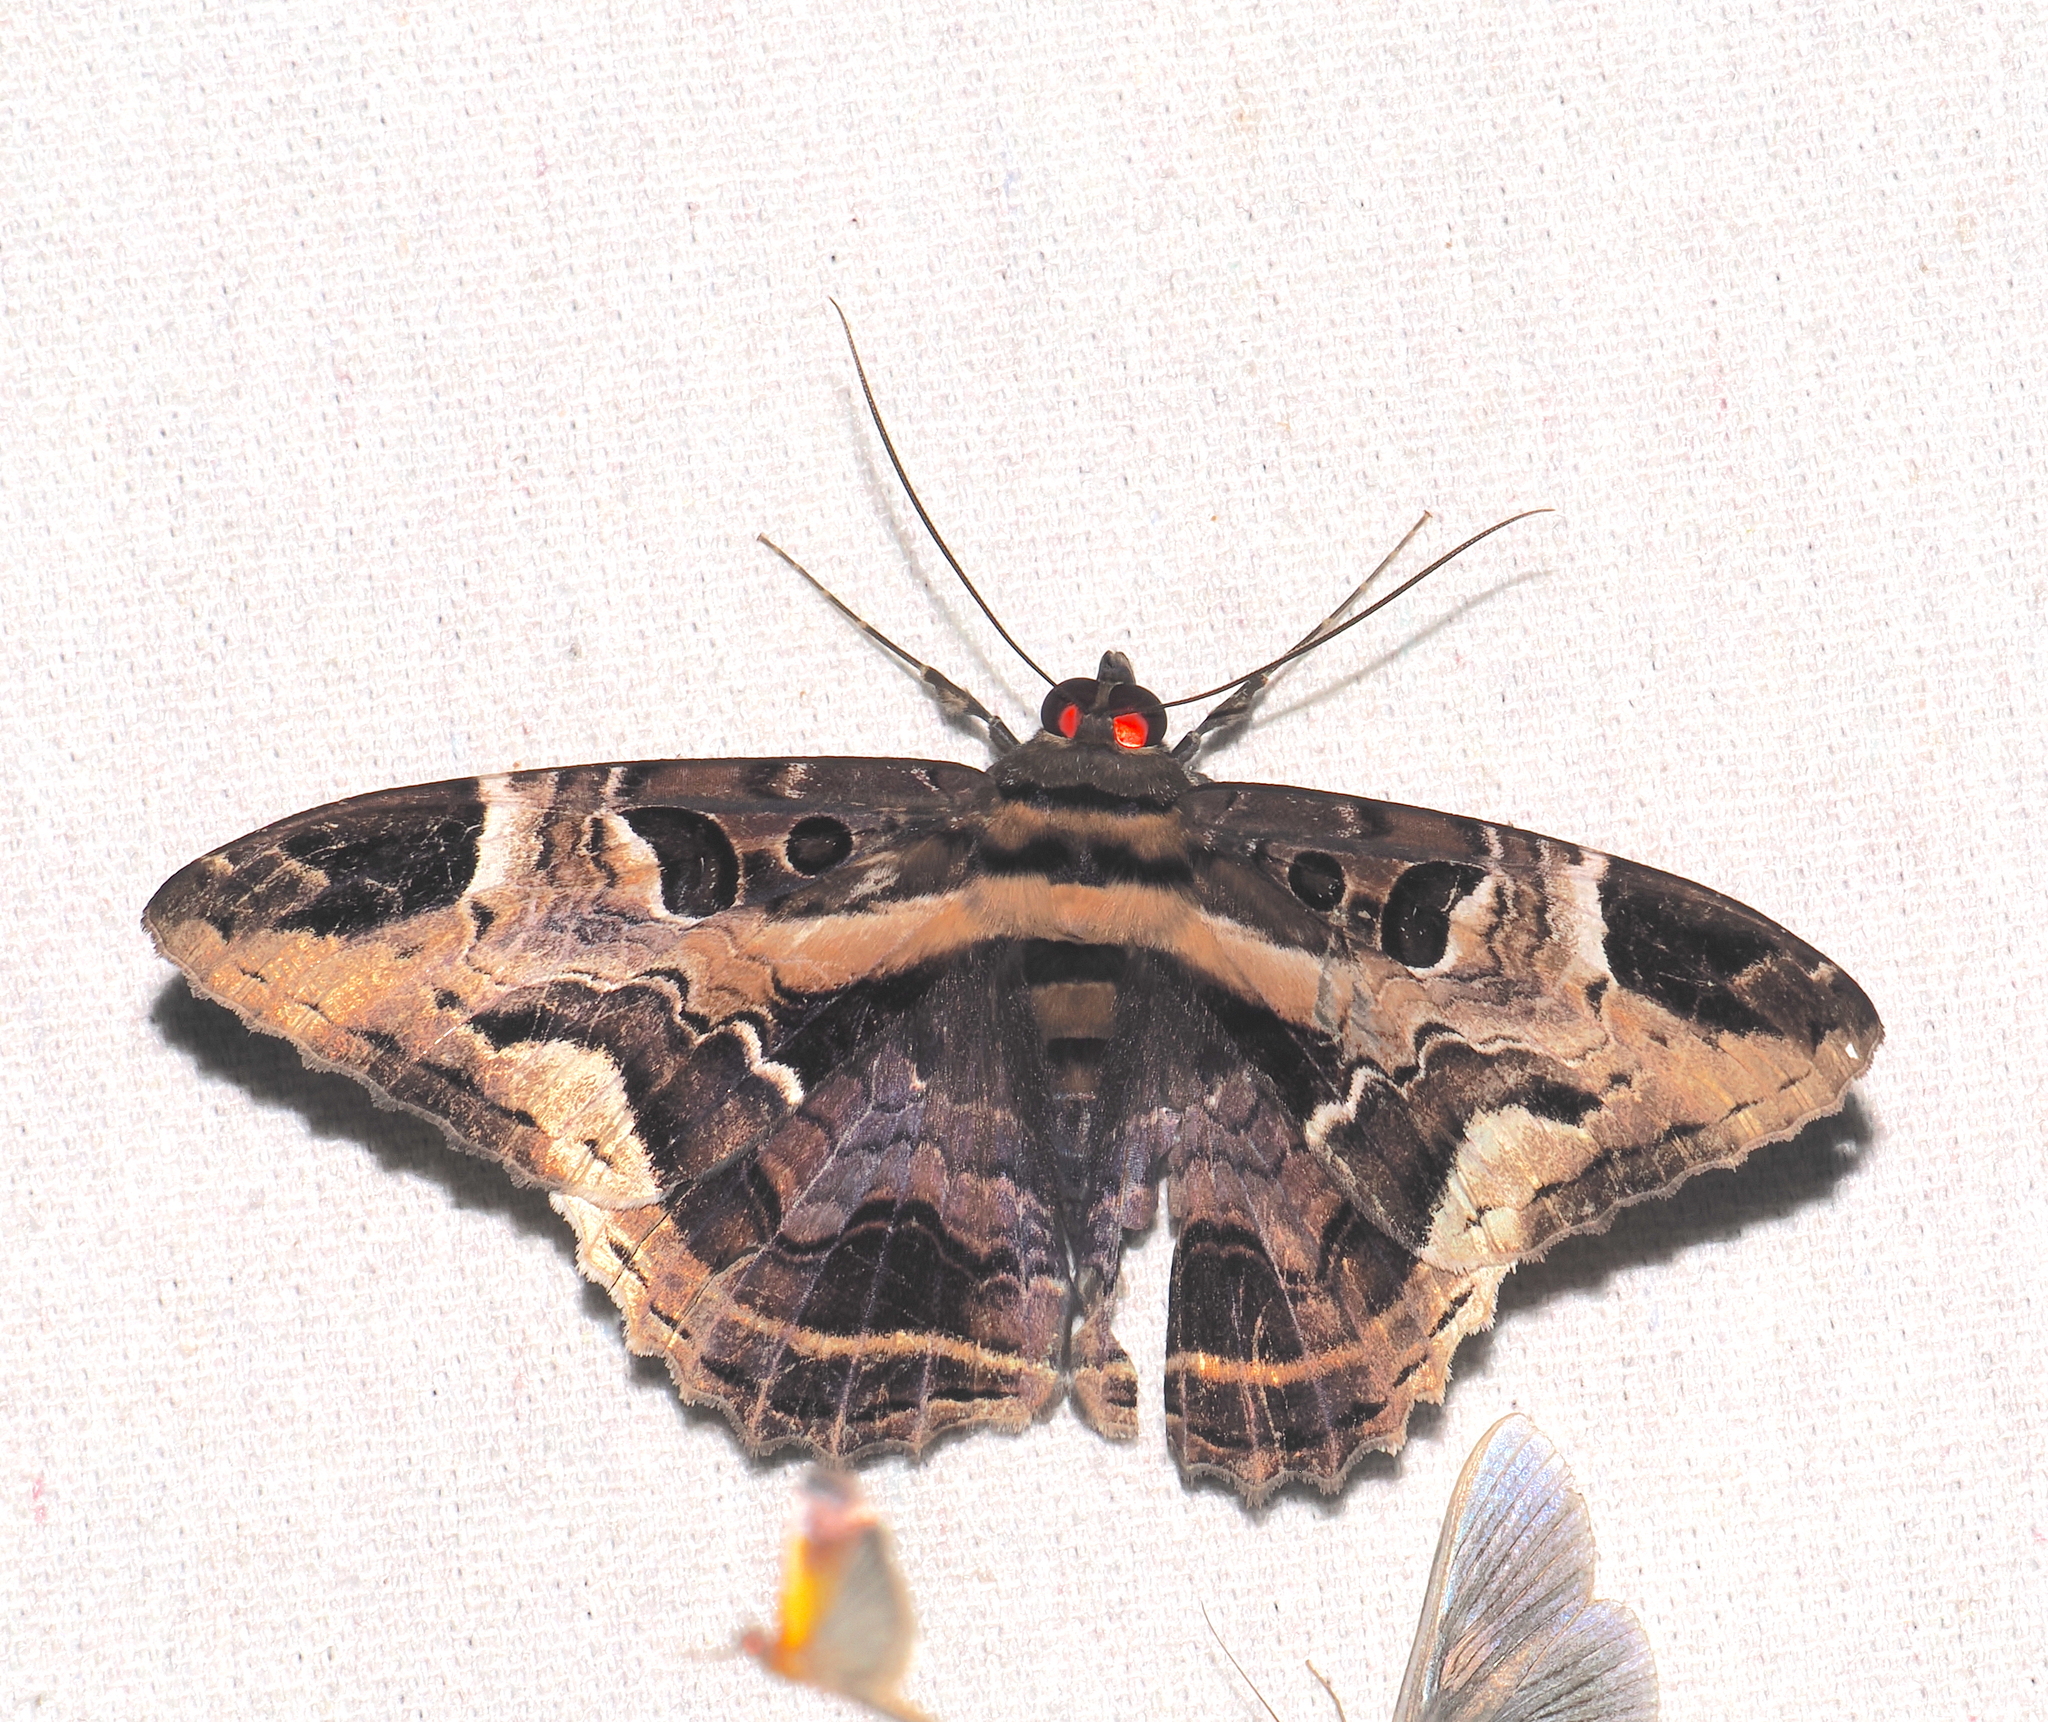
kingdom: Animalia
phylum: Arthropoda
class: Insecta
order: Lepidoptera
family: Erebidae
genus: Feigeria
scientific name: Feigeria herilia
